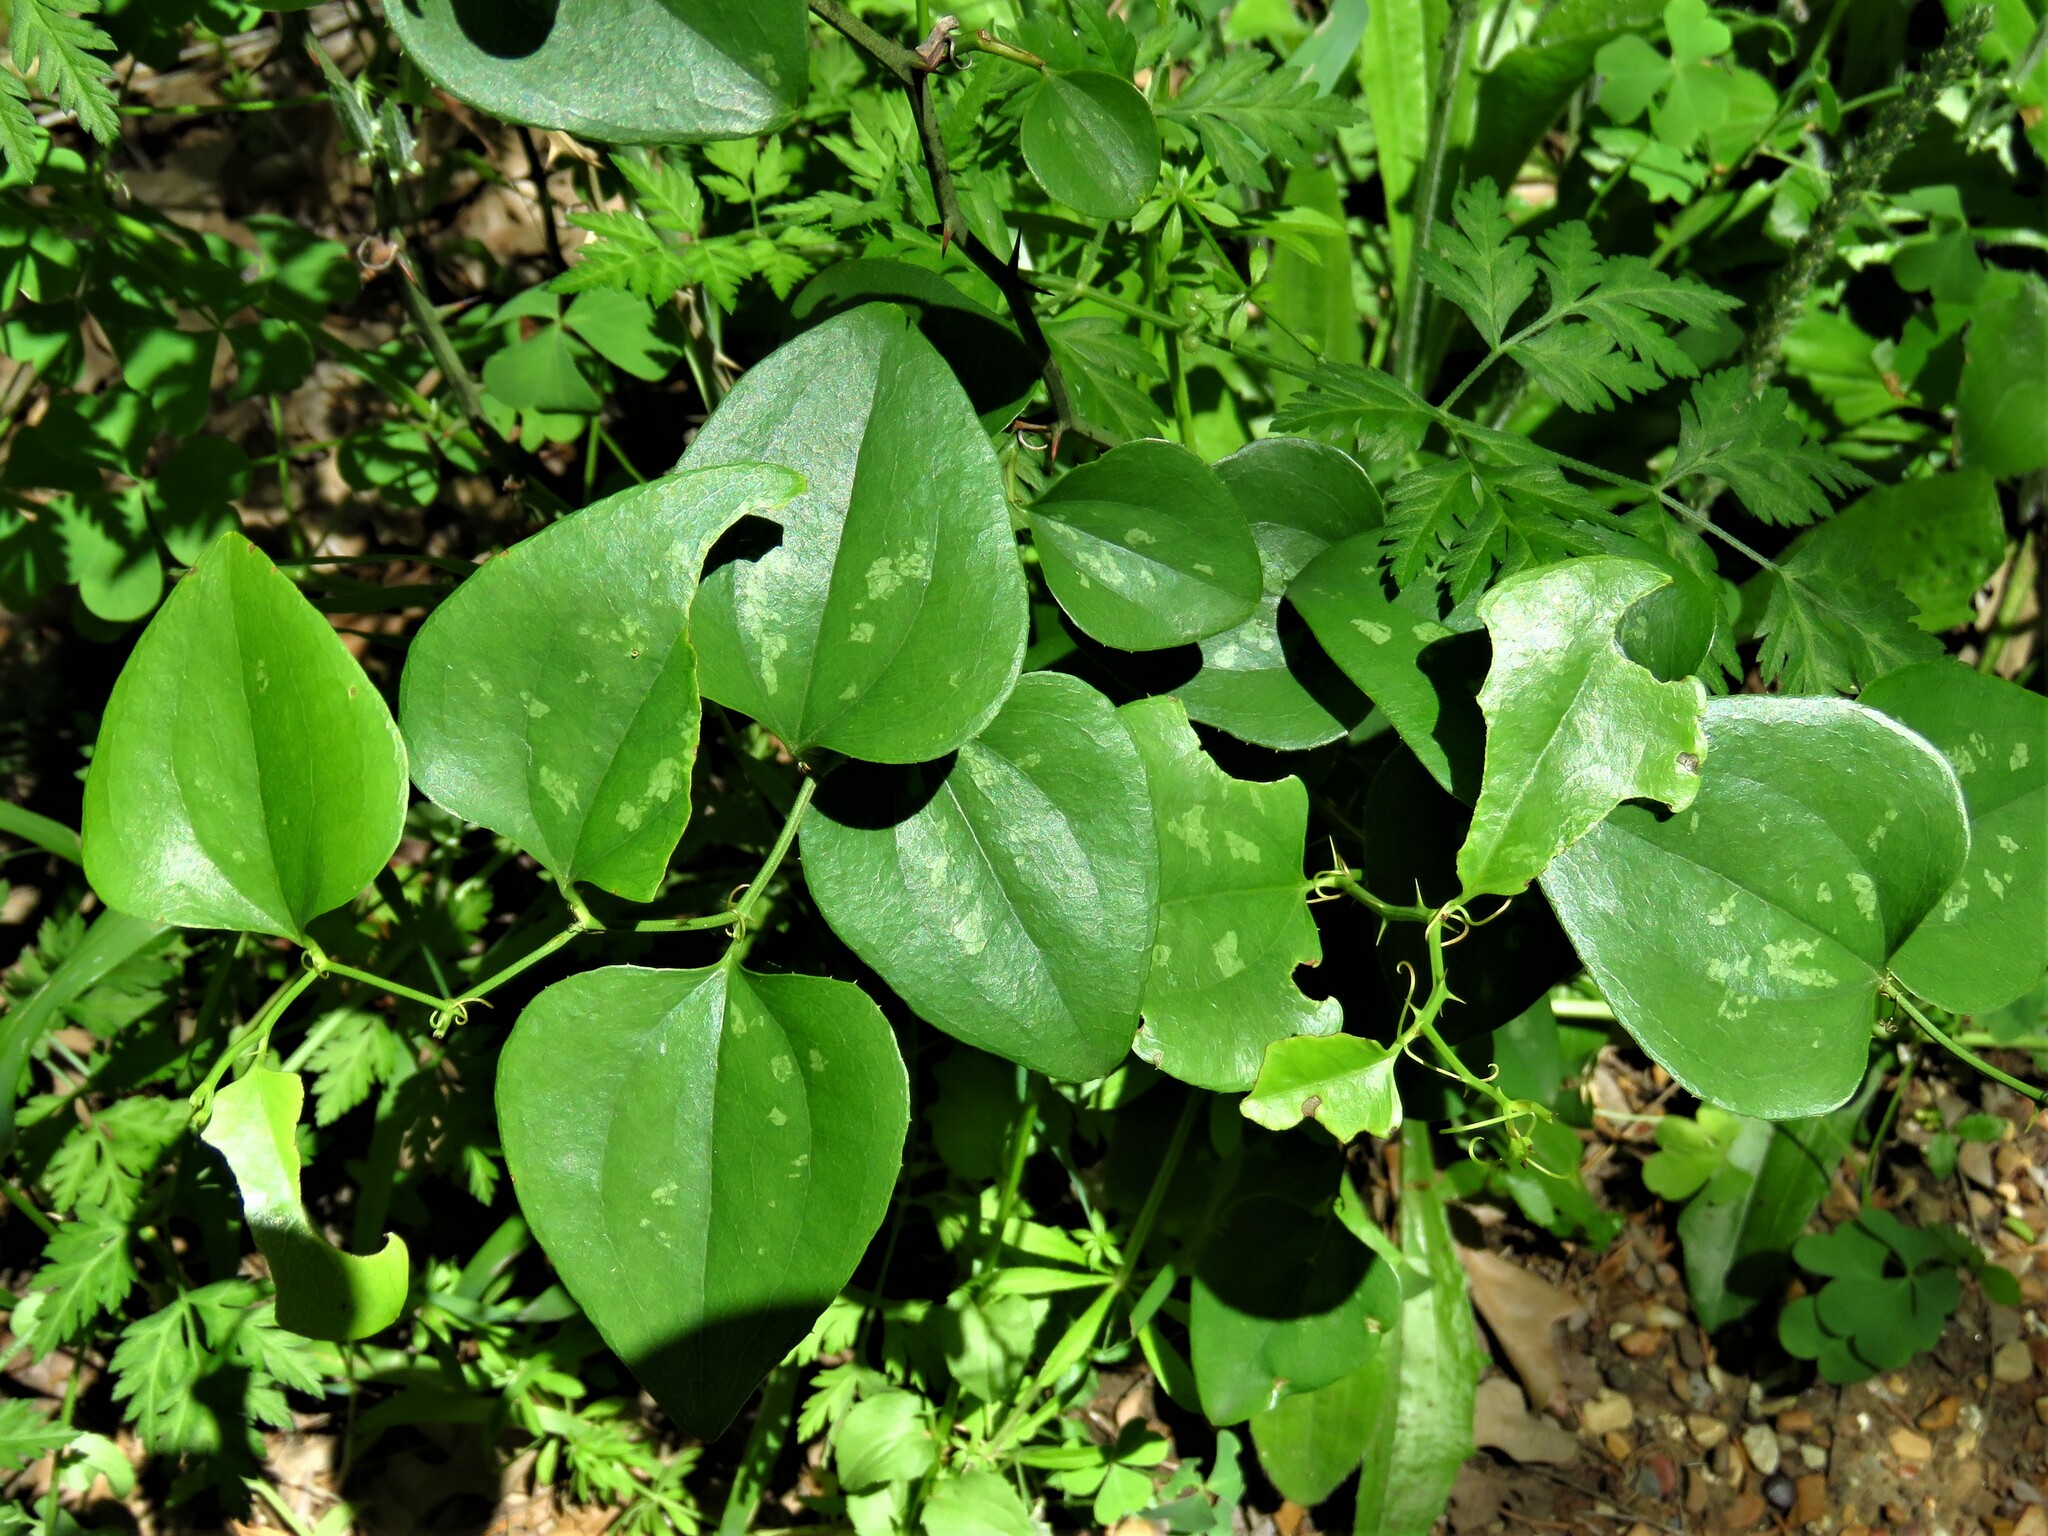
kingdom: Plantae
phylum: Tracheophyta
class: Liliopsida
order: Liliales
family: Smilacaceae
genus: Smilax
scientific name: Smilax bona-nox
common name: Catbrier
